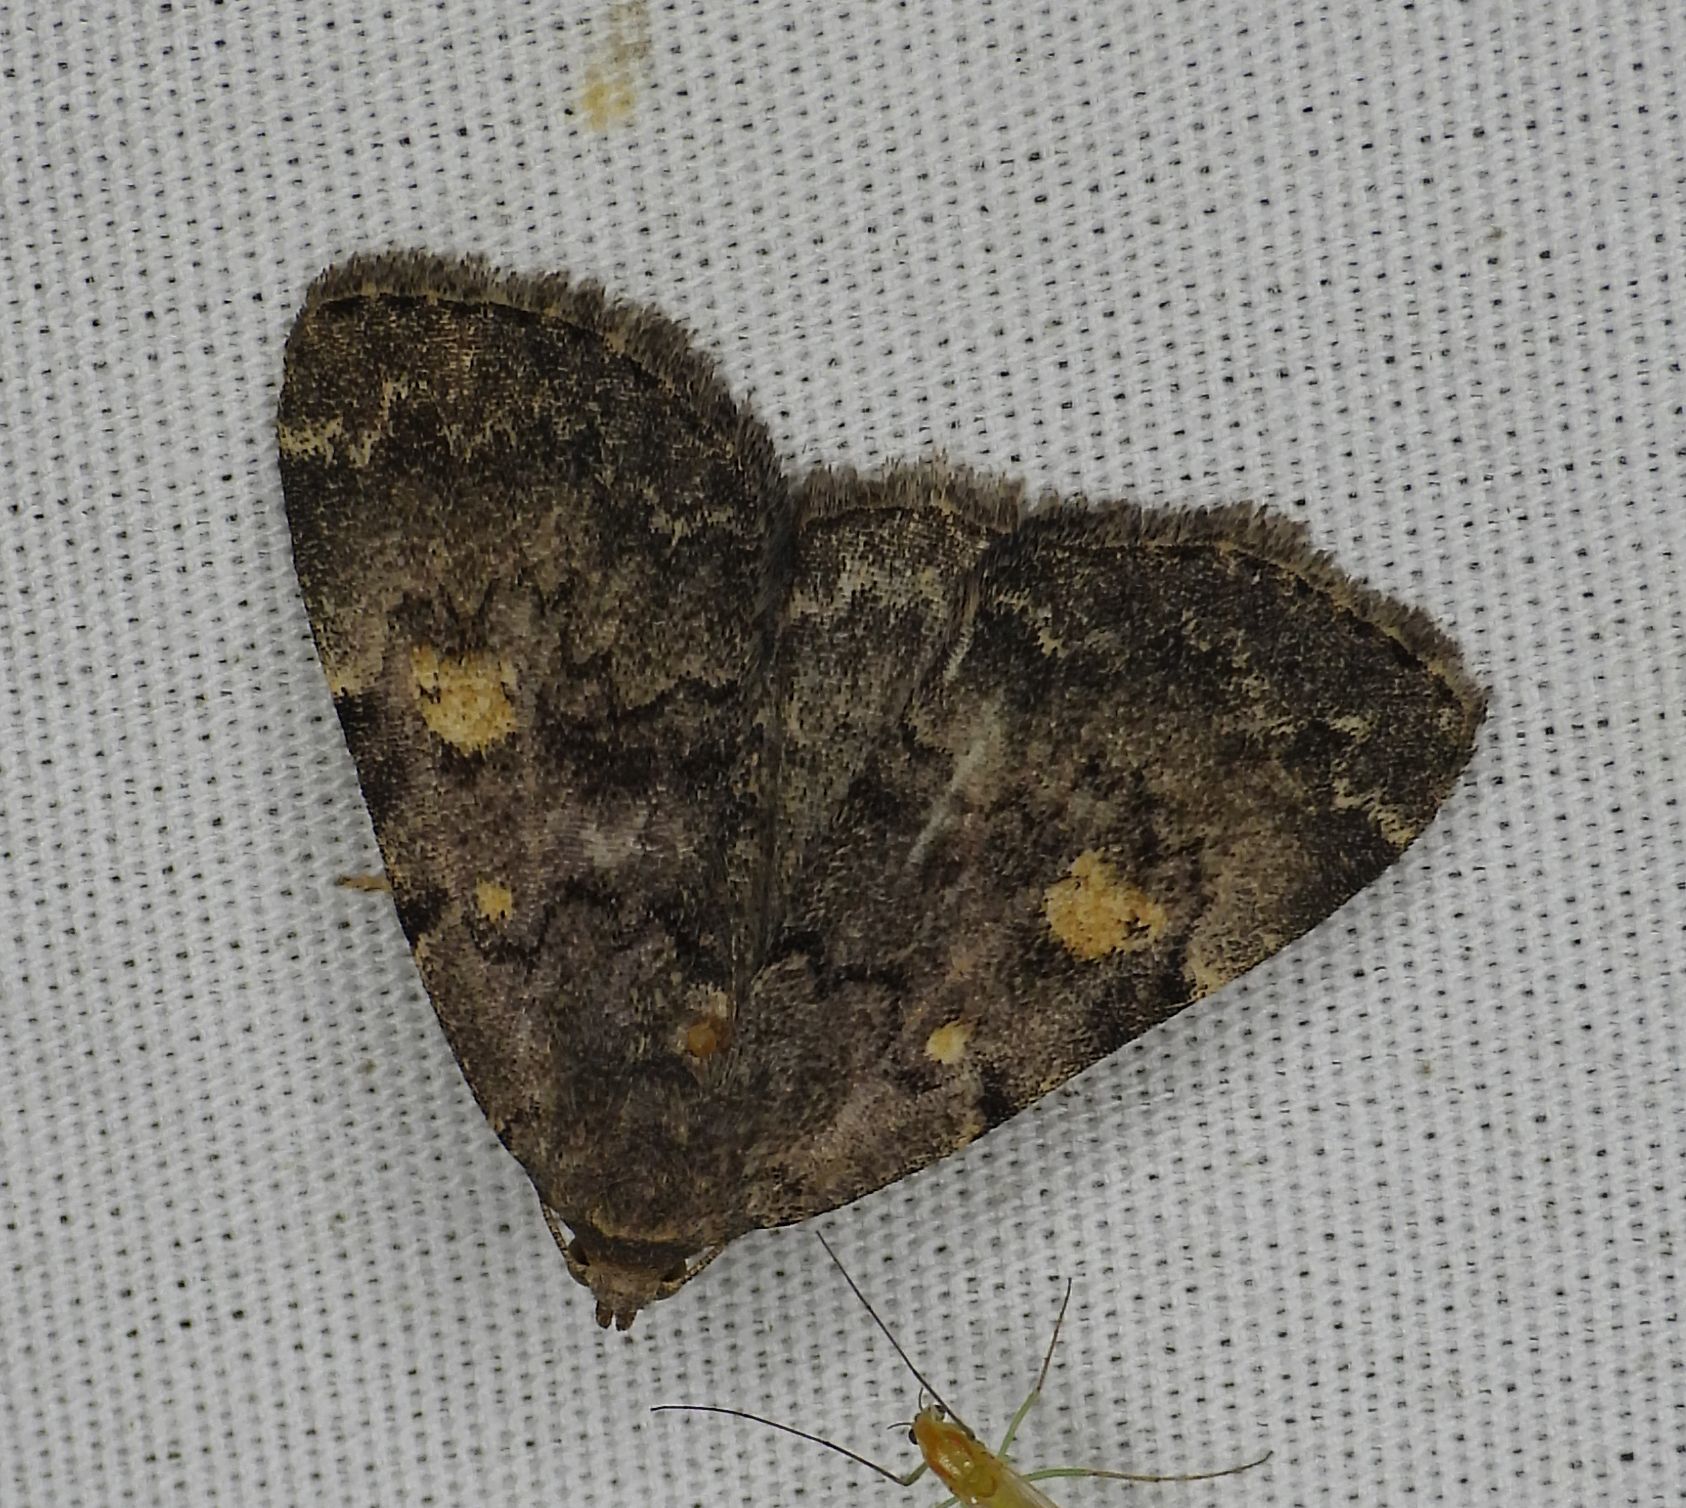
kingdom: Animalia
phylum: Arthropoda
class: Insecta
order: Lepidoptera
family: Erebidae
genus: Idia
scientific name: Idia aemula
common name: Common idia moth
